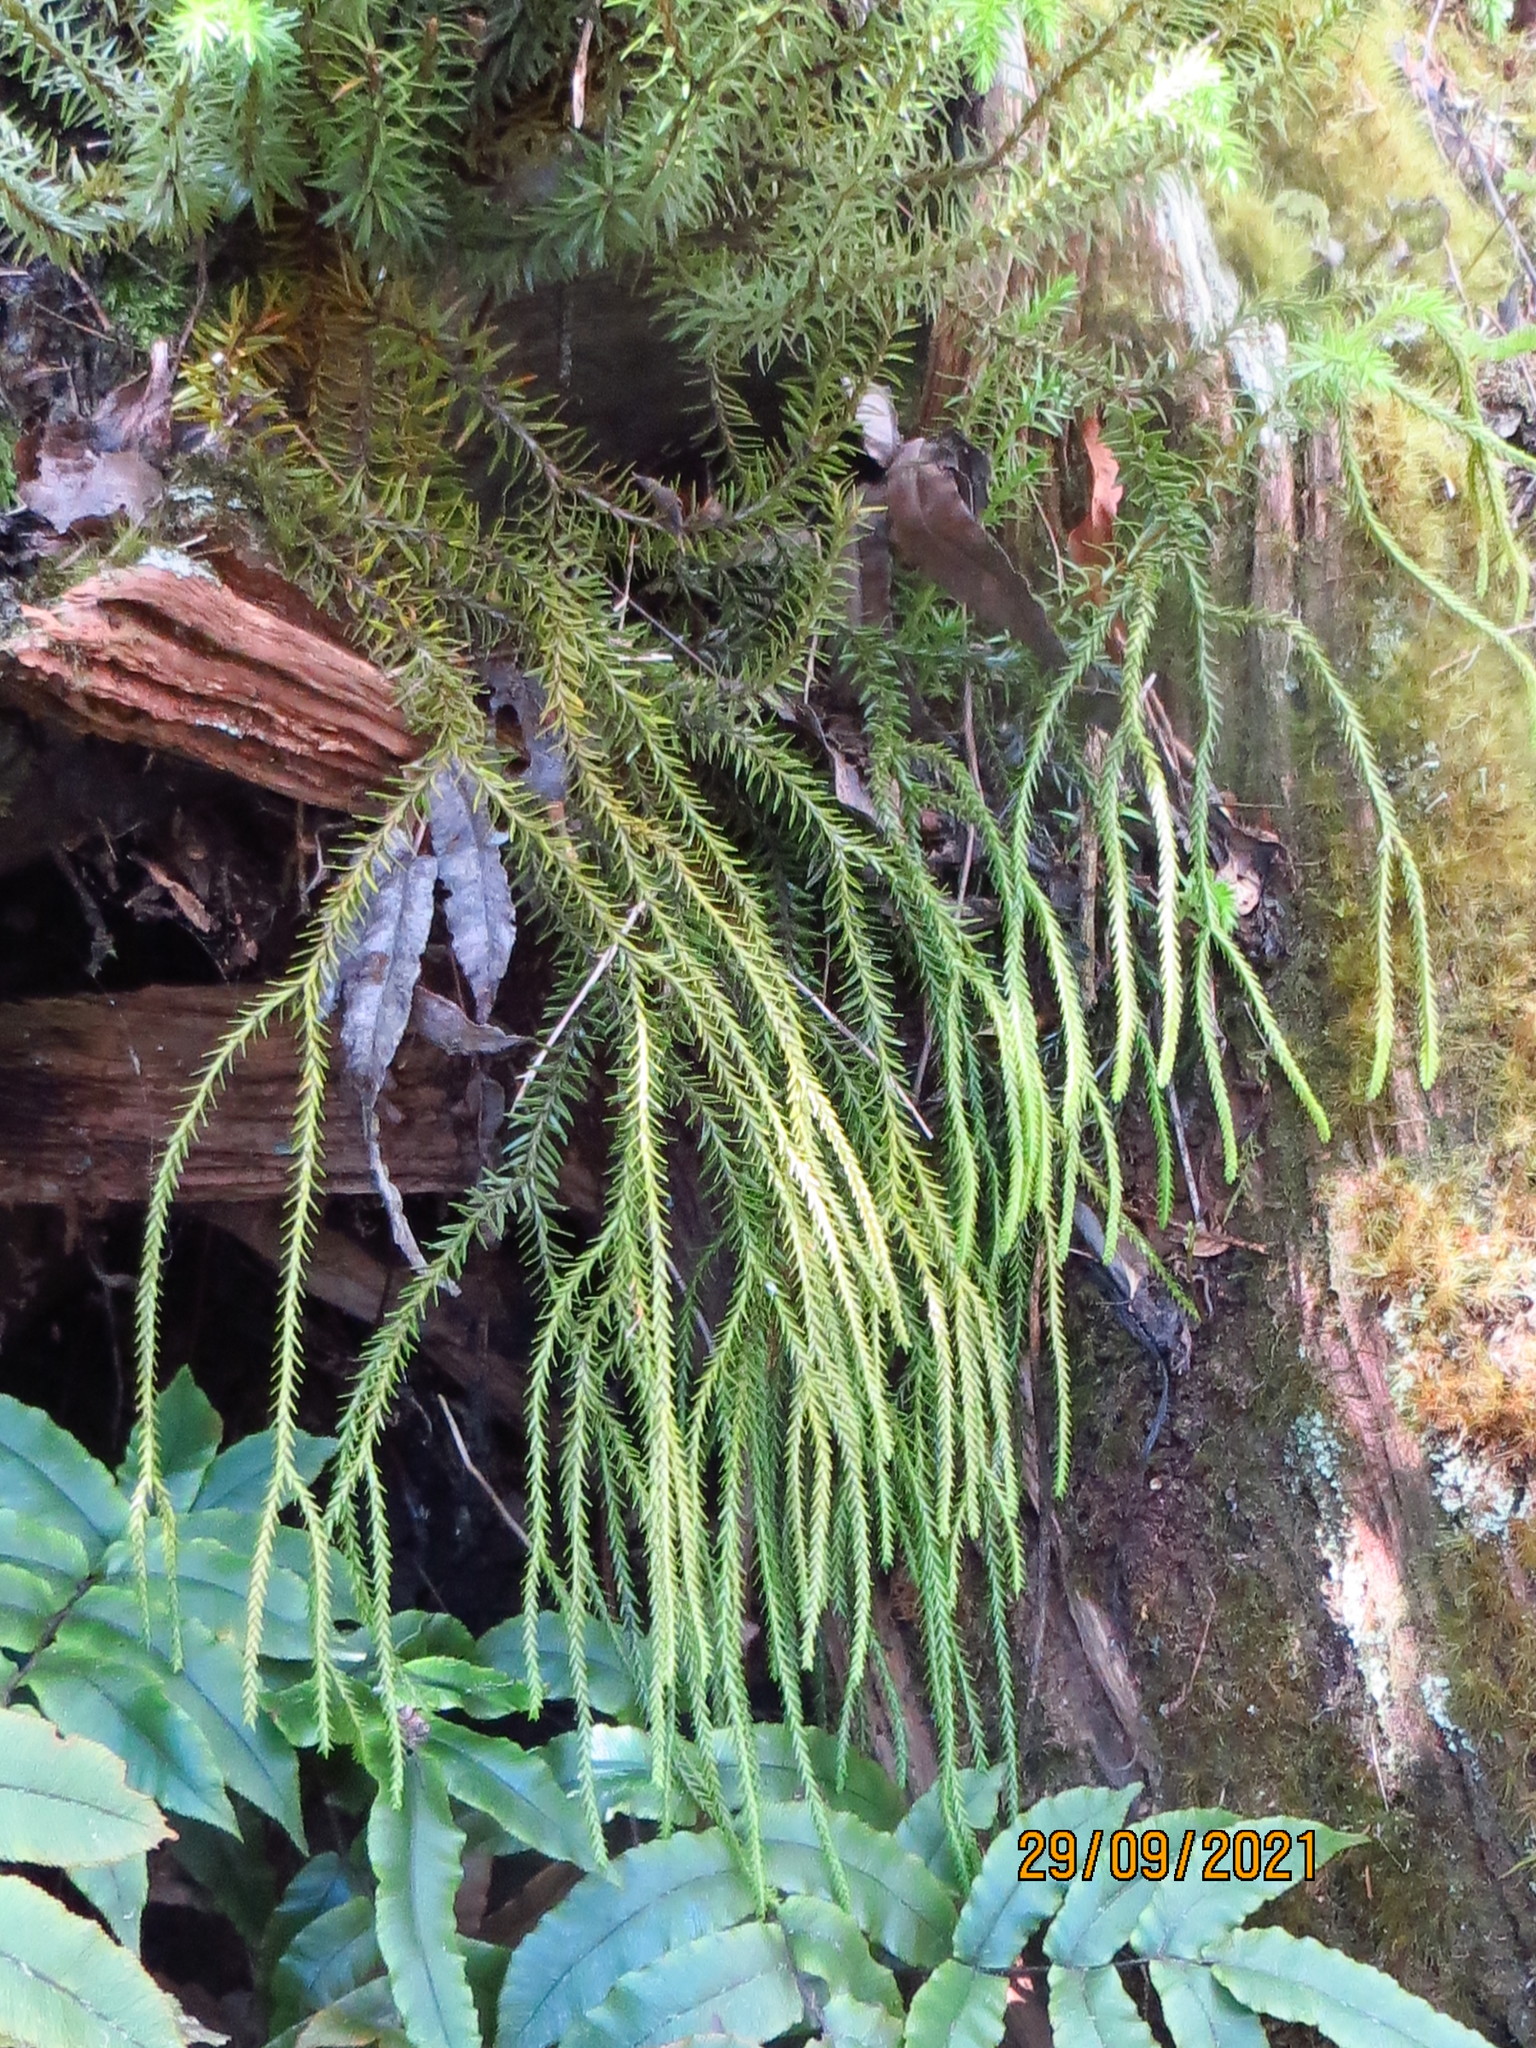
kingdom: Plantae
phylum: Tracheophyta
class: Lycopodiopsida
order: Lycopodiales
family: Lycopodiaceae
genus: Phlegmariurus
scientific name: Phlegmariurus varius
